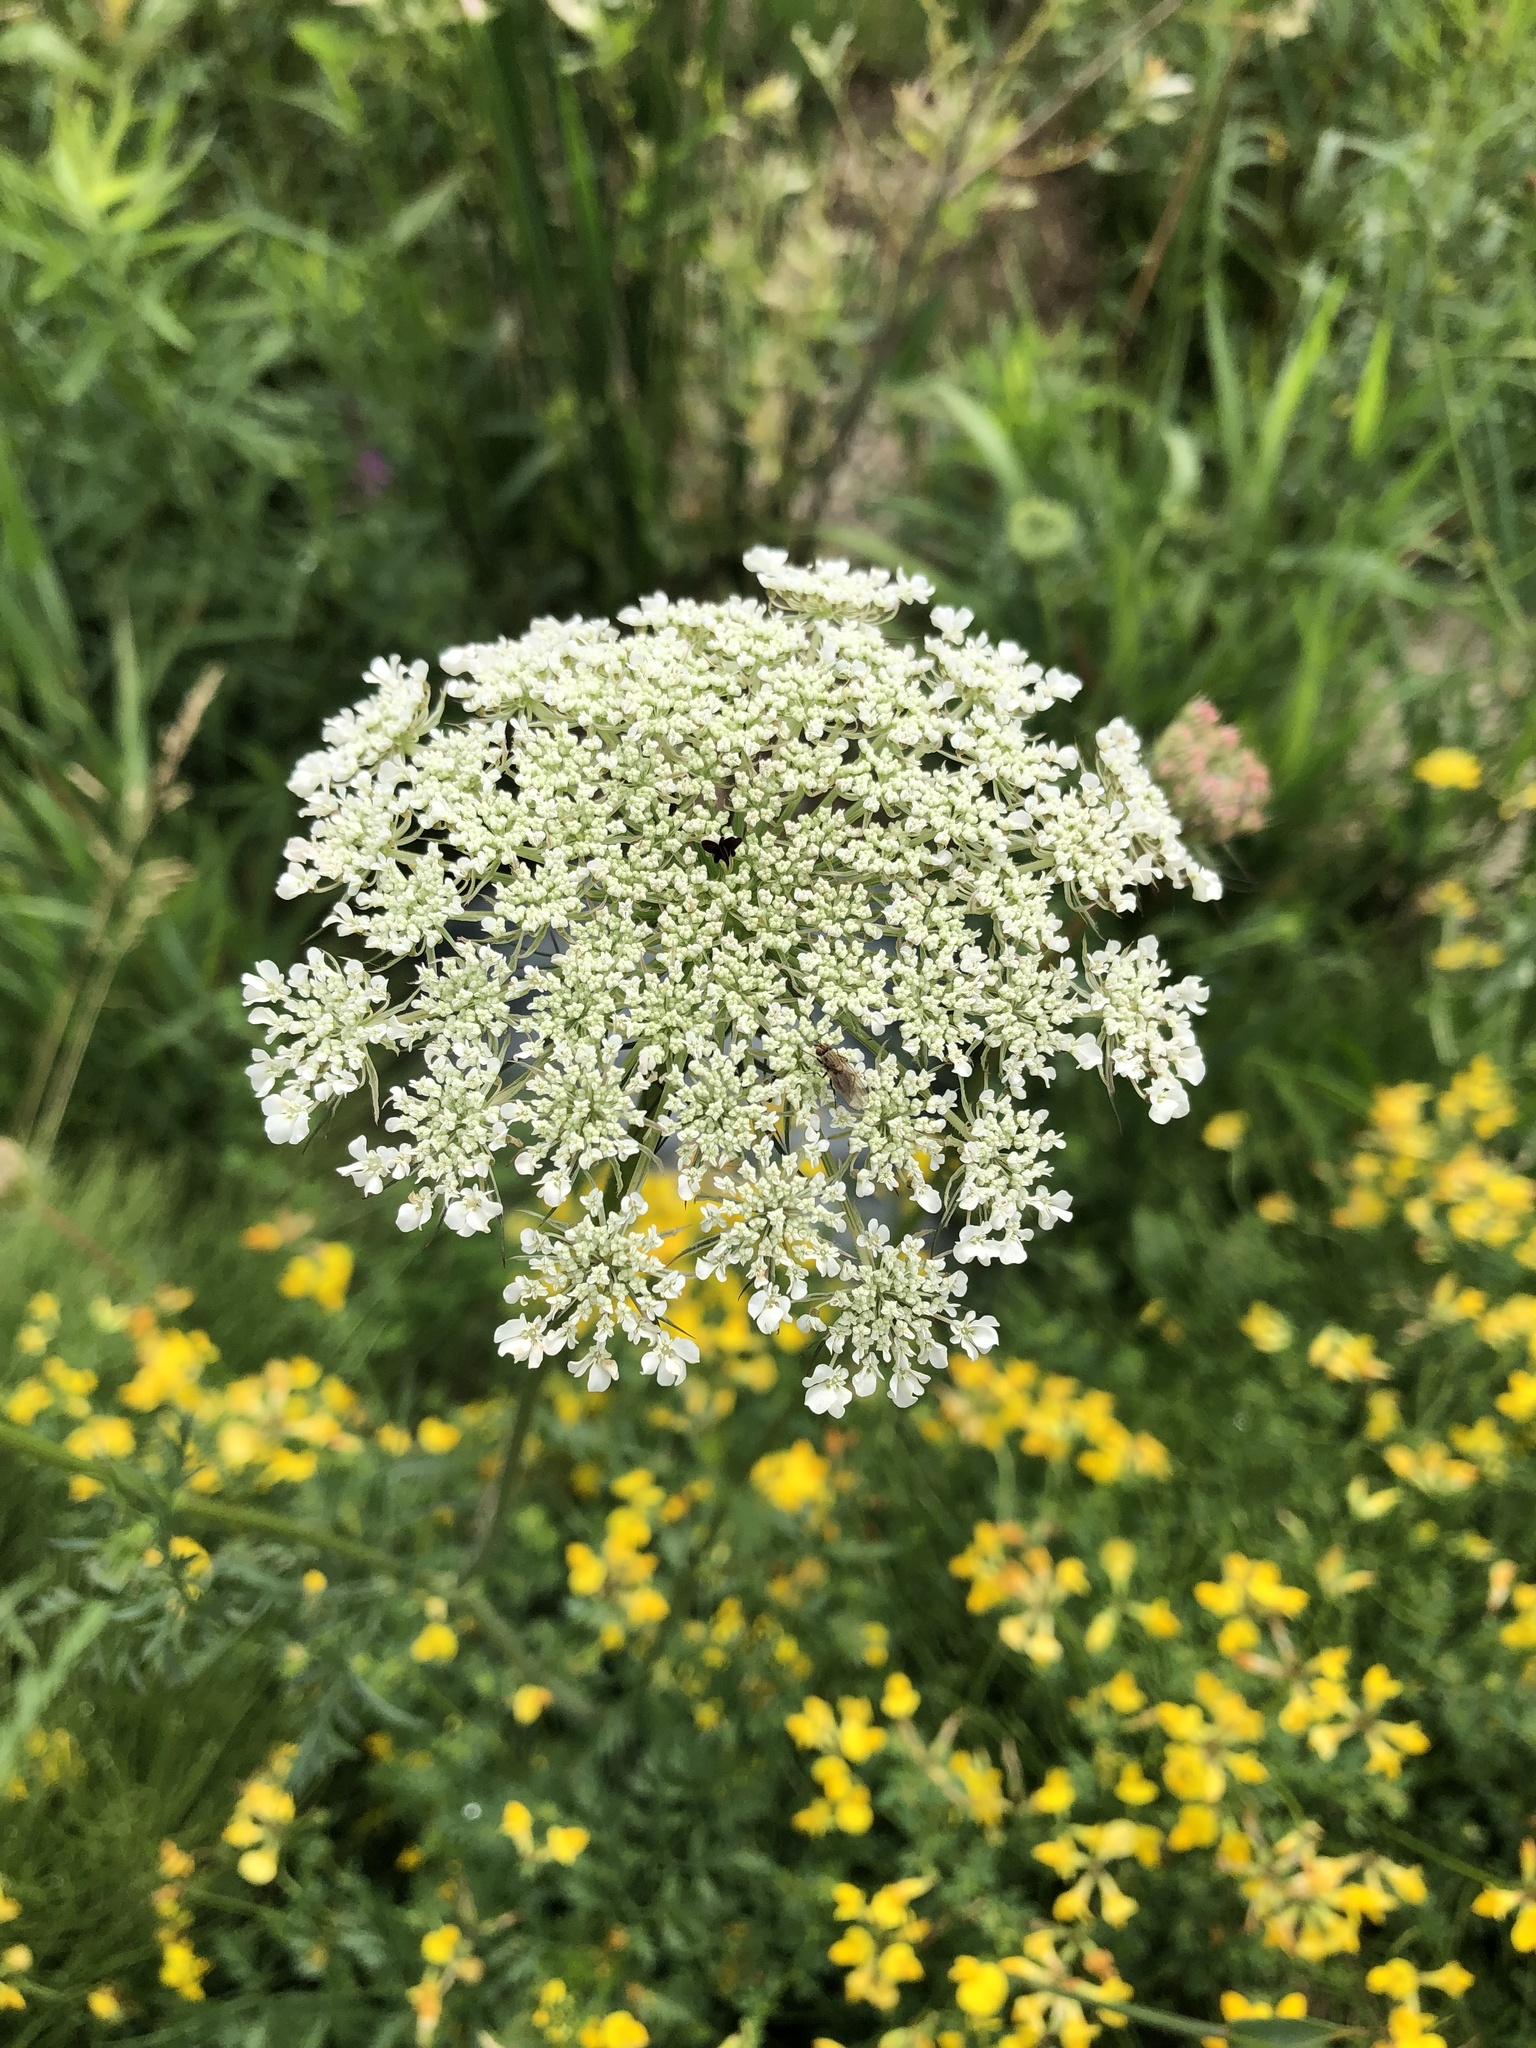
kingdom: Plantae
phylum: Tracheophyta
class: Magnoliopsida
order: Apiales
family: Apiaceae
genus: Daucus
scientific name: Daucus carota
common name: Wild carrot
